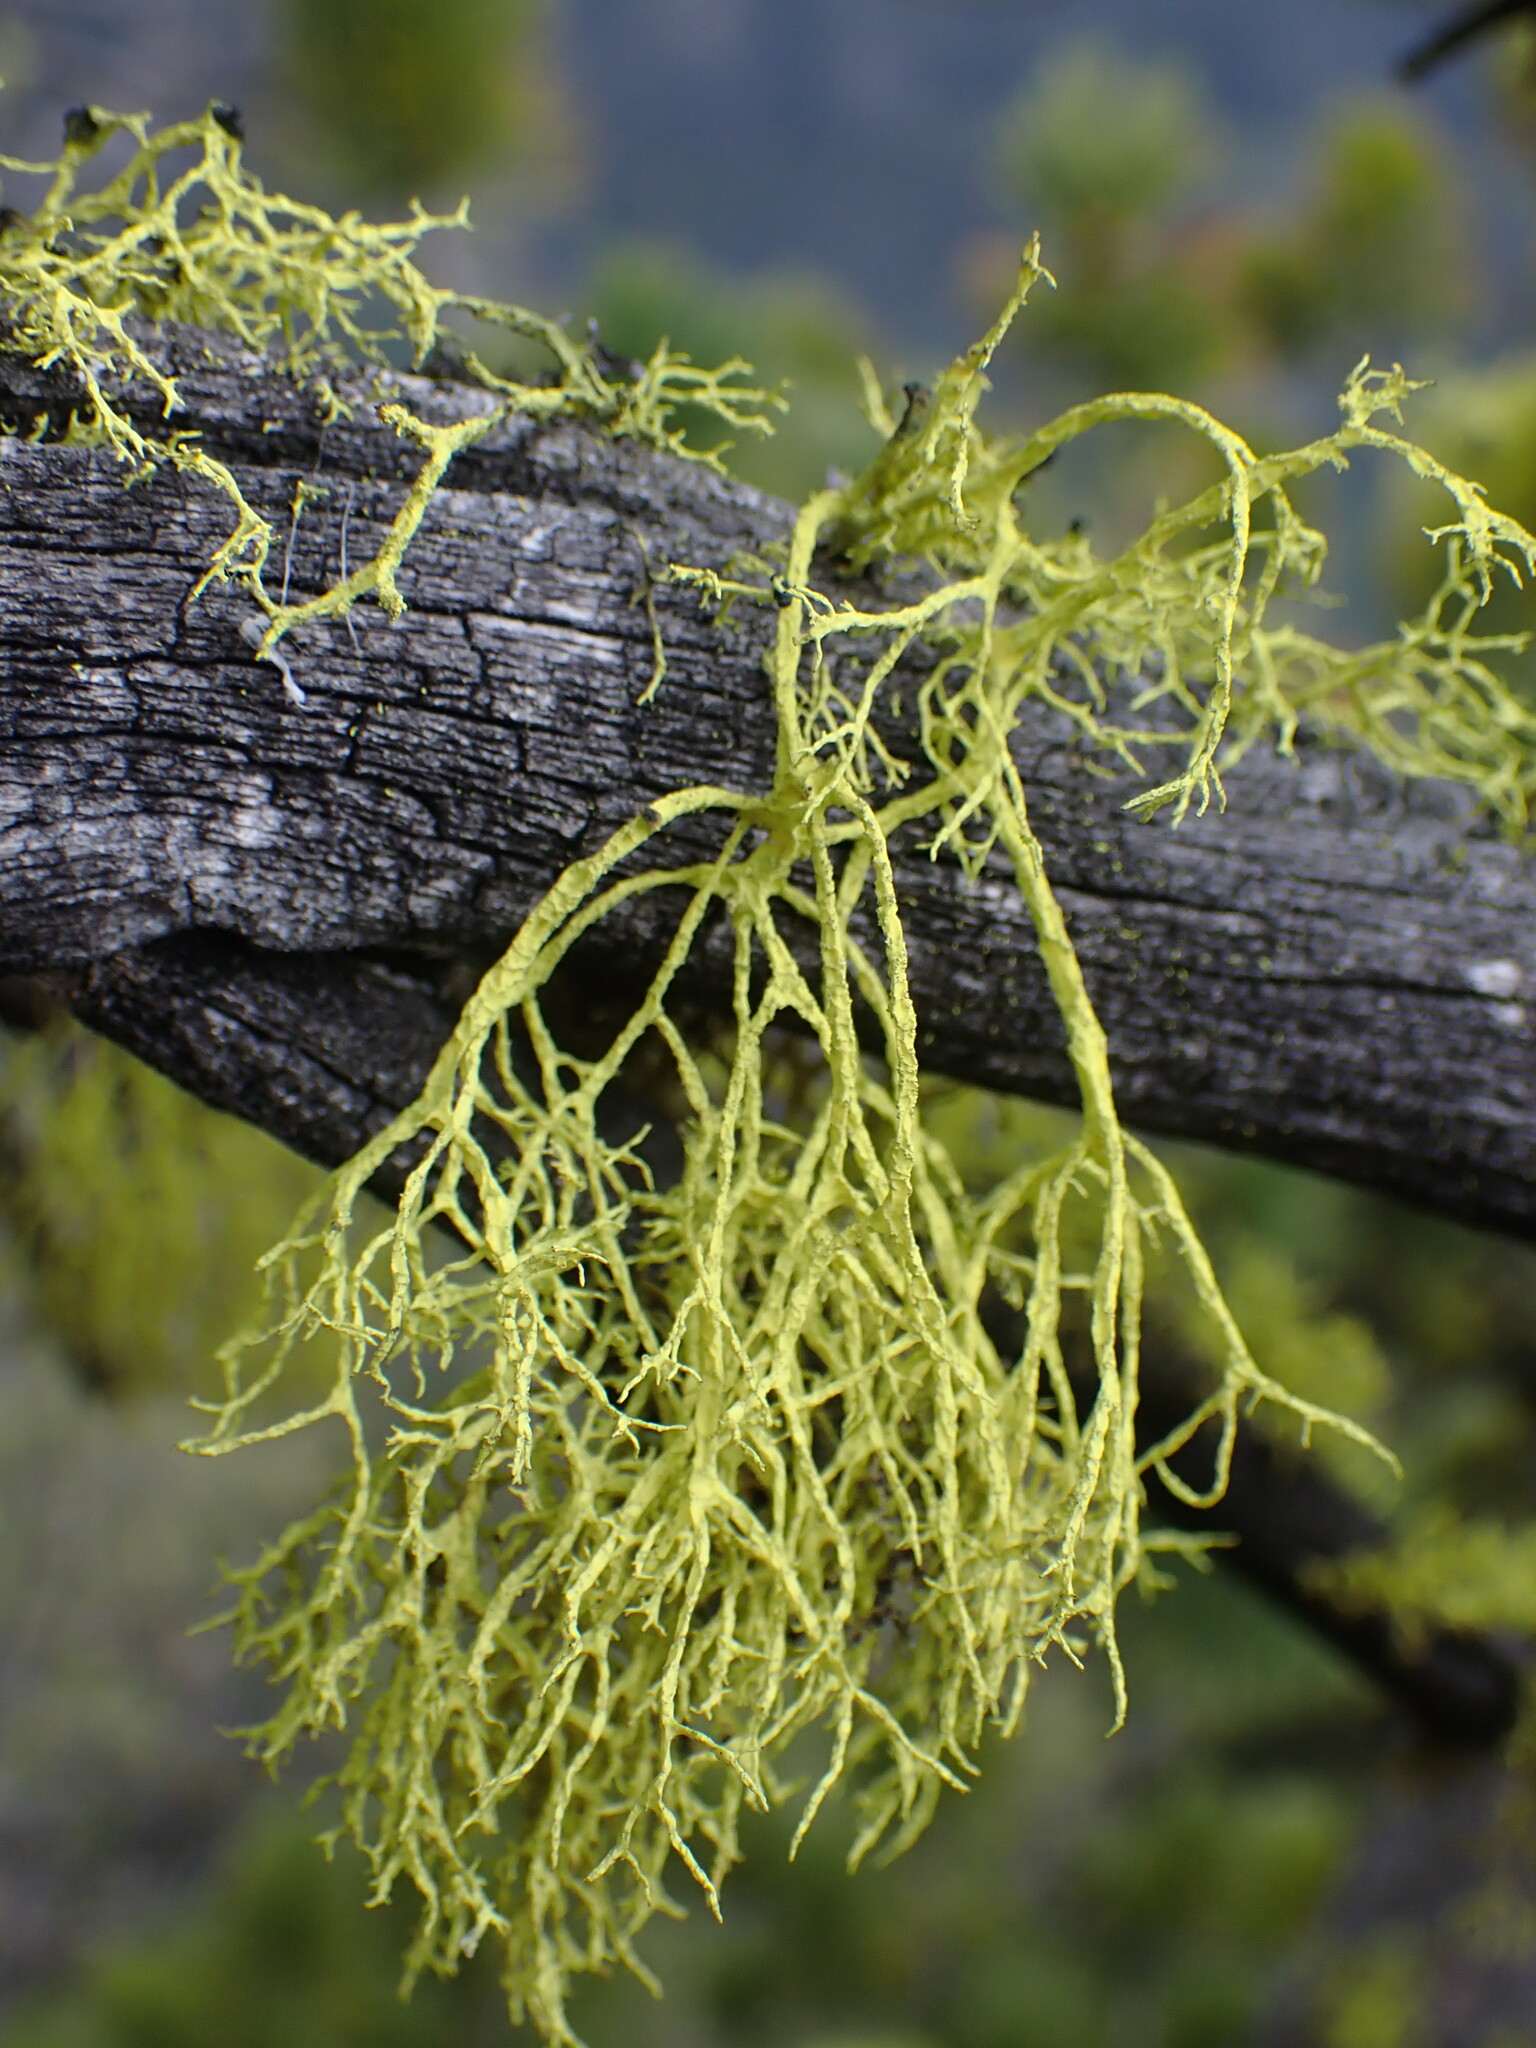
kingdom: Fungi
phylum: Ascomycota
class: Lecanoromycetes
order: Lecanorales
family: Parmeliaceae
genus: Letharia
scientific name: Letharia vulpina
